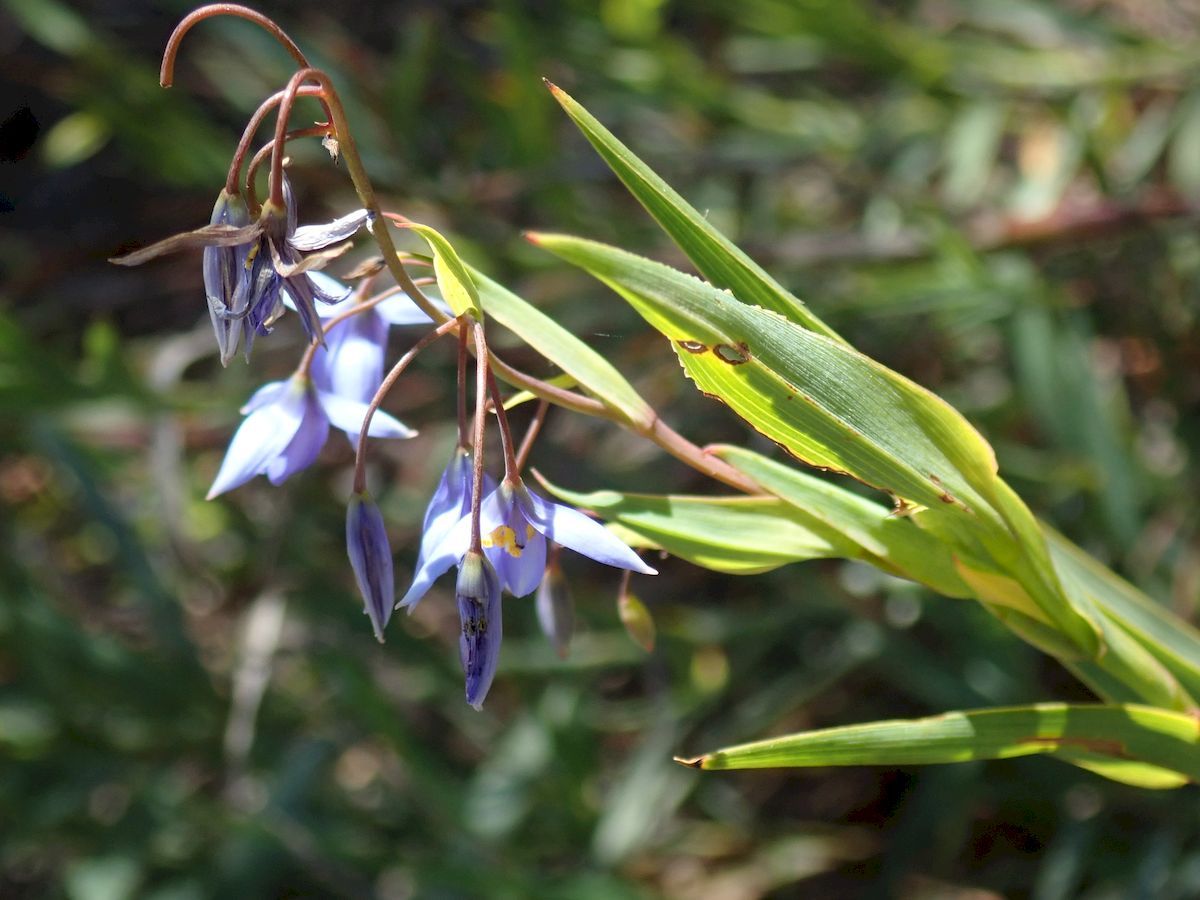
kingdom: Plantae
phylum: Tracheophyta
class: Liliopsida
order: Asparagales
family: Asphodelaceae
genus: Stypandra
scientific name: Stypandra glauca
